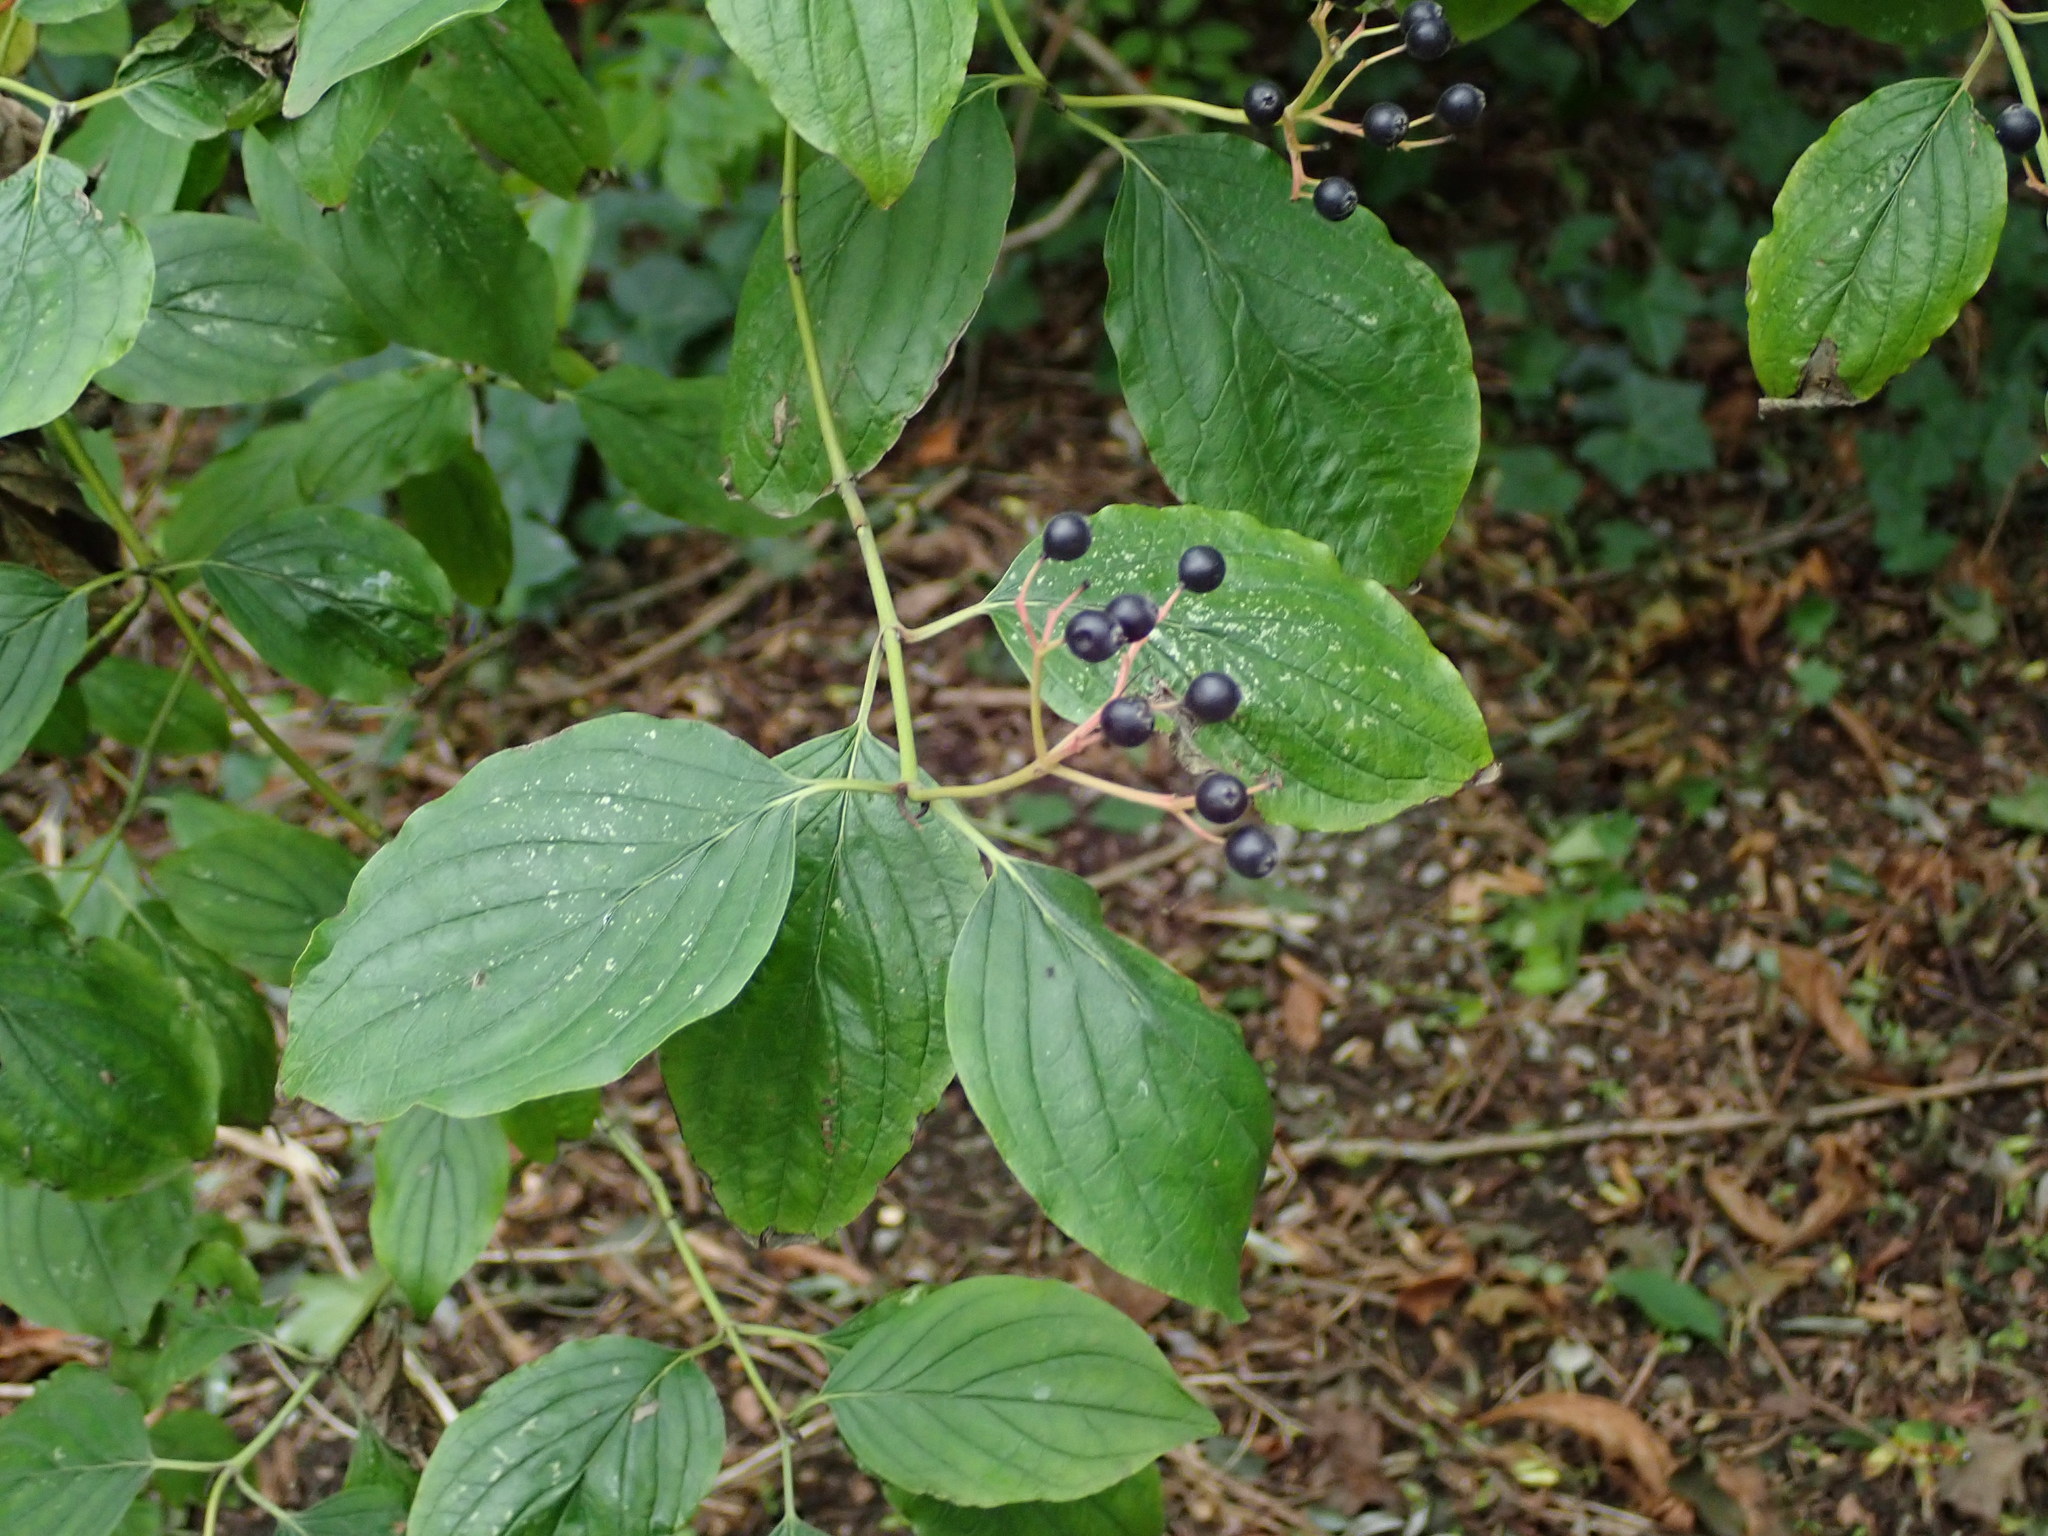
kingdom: Plantae
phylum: Tracheophyta
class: Magnoliopsida
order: Cornales
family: Cornaceae
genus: Cornus
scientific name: Cornus sanguinea
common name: Dogwood
